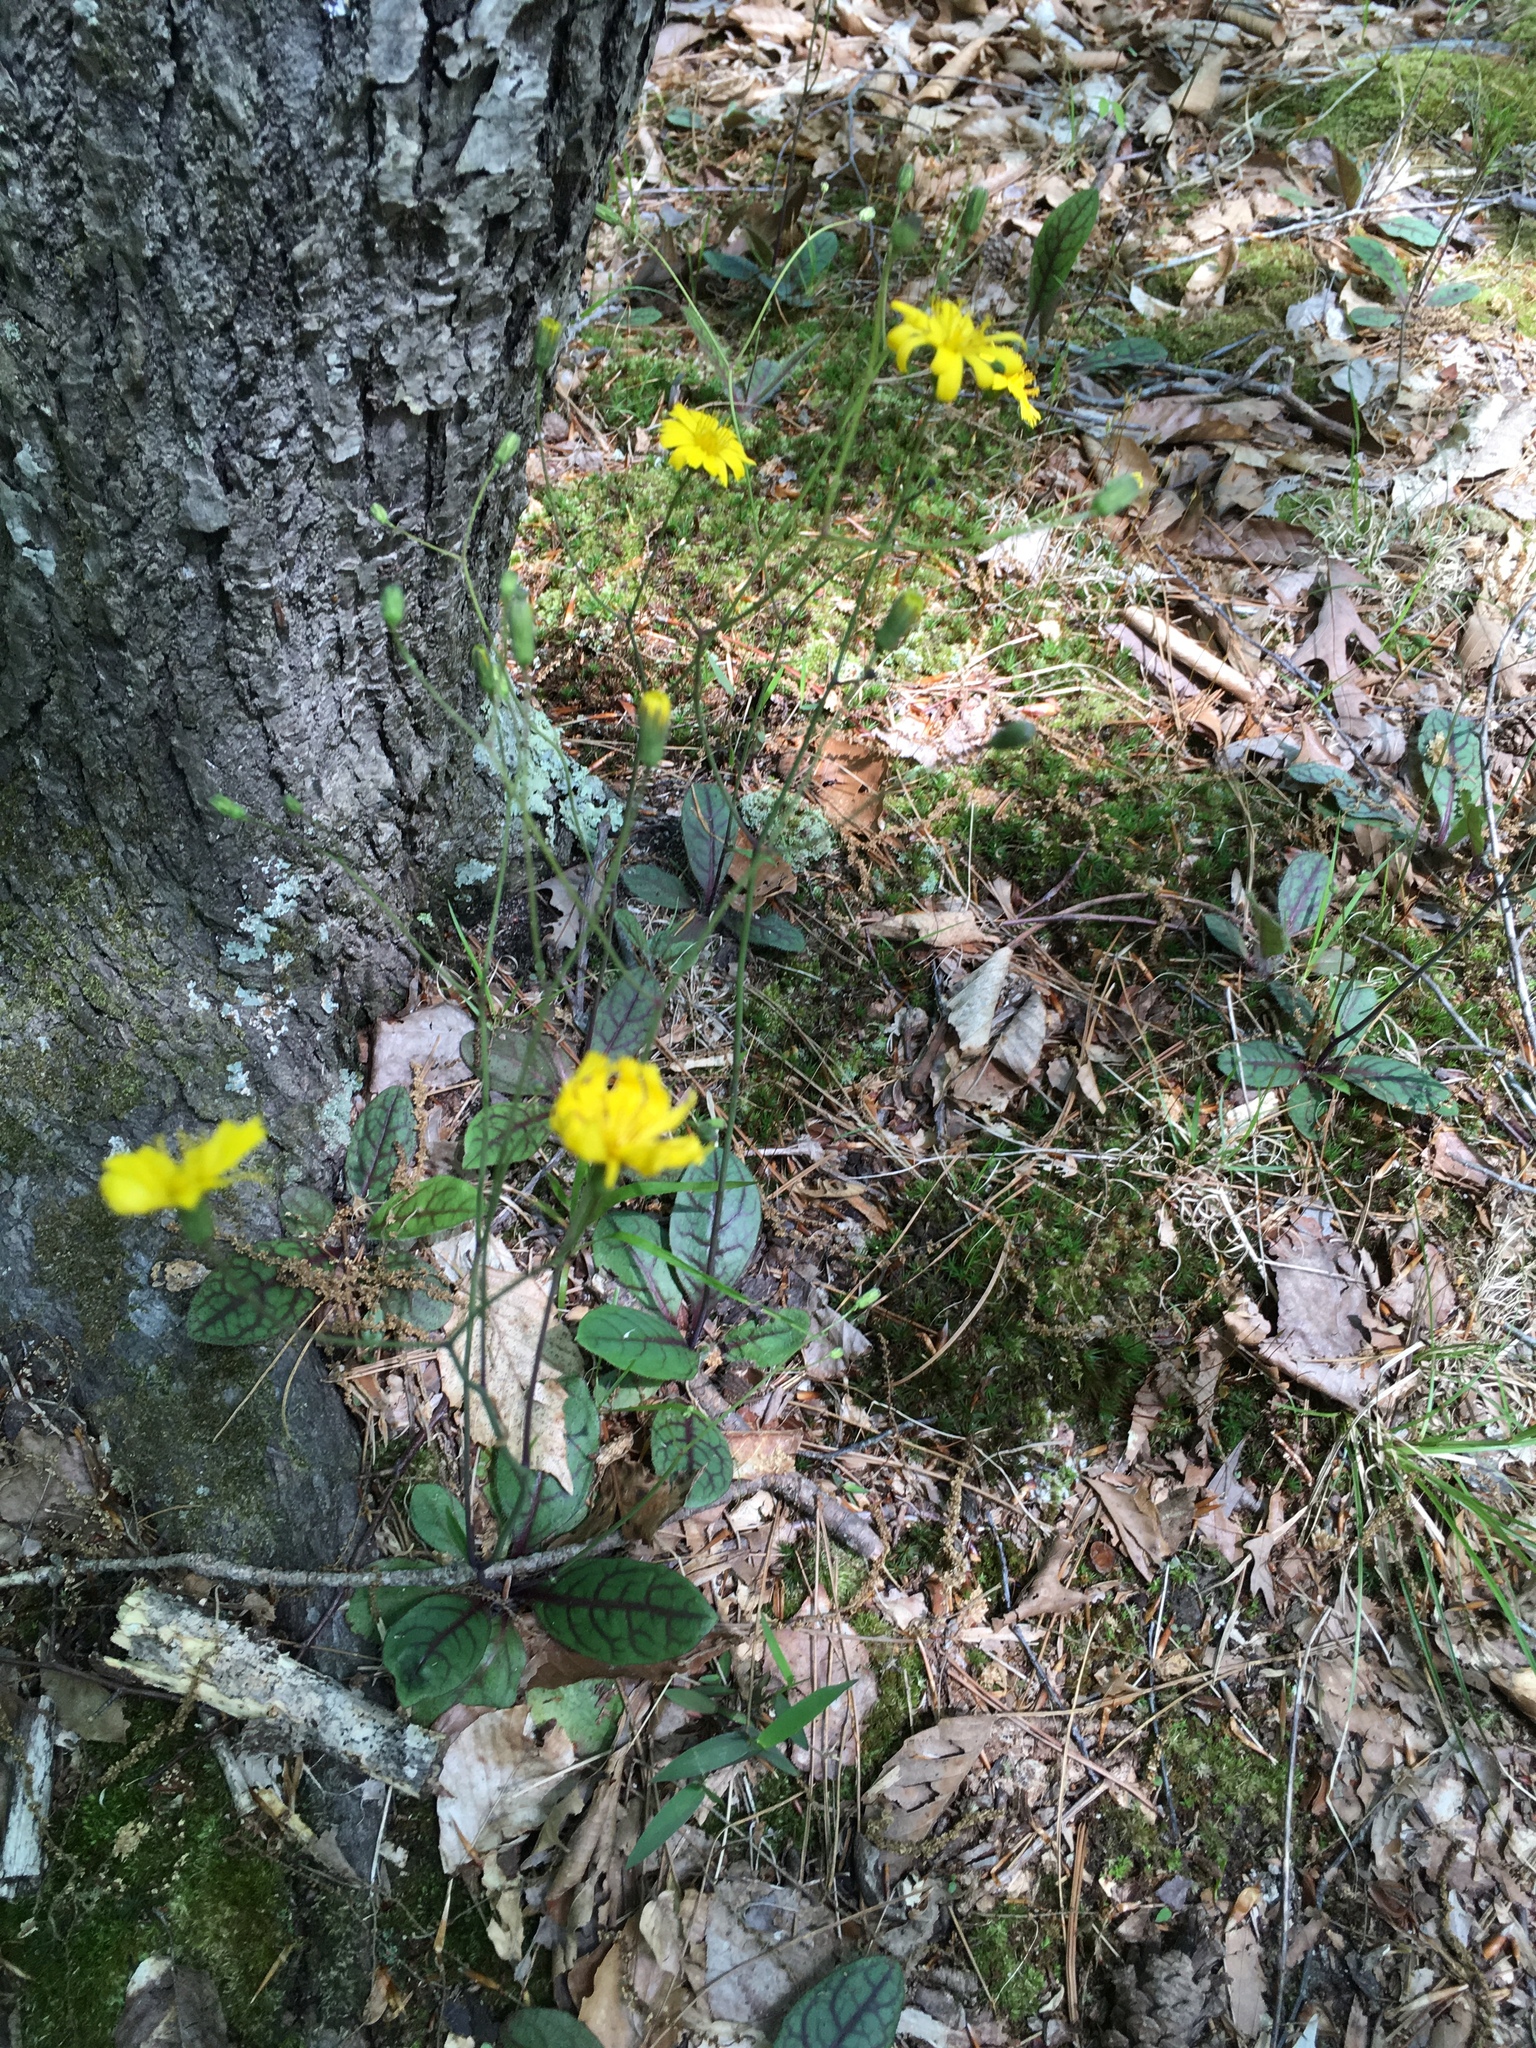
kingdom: Plantae
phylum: Tracheophyta
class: Magnoliopsida
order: Asterales
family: Asteraceae
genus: Hieracium
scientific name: Hieracium venosum
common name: Rattlesnake hawkweed
